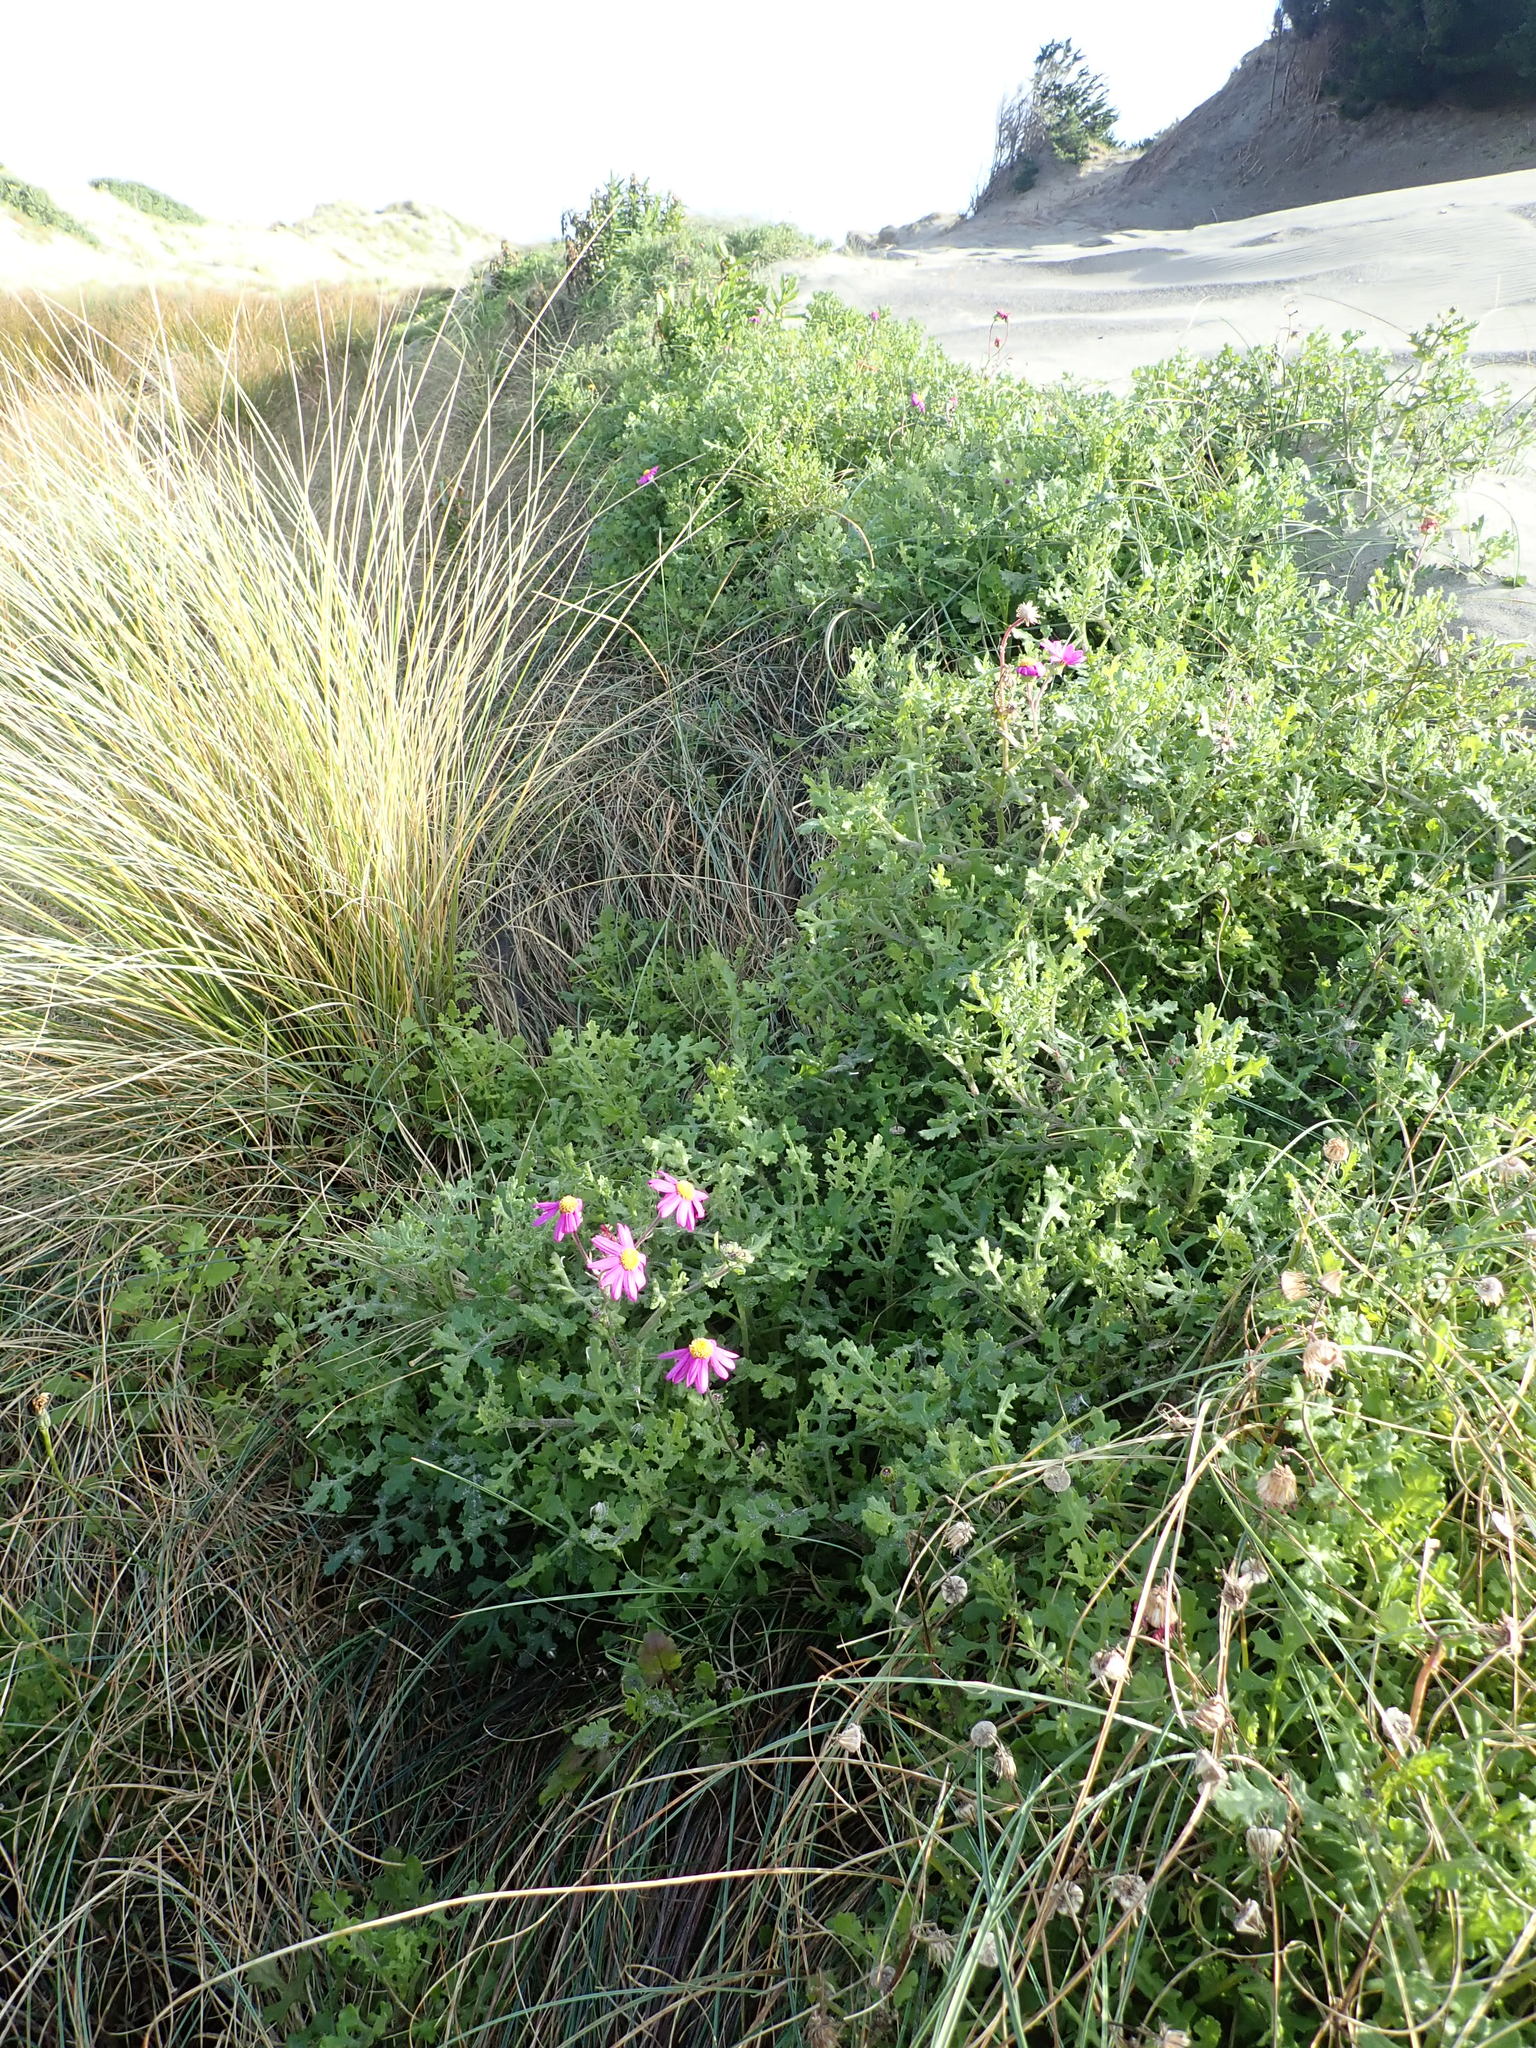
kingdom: Plantae
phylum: Tracheophyta
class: Magnoliopsida
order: Asterales
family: Asteraceae
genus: Senecio
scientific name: Senecio elegans
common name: Purple groundsel
